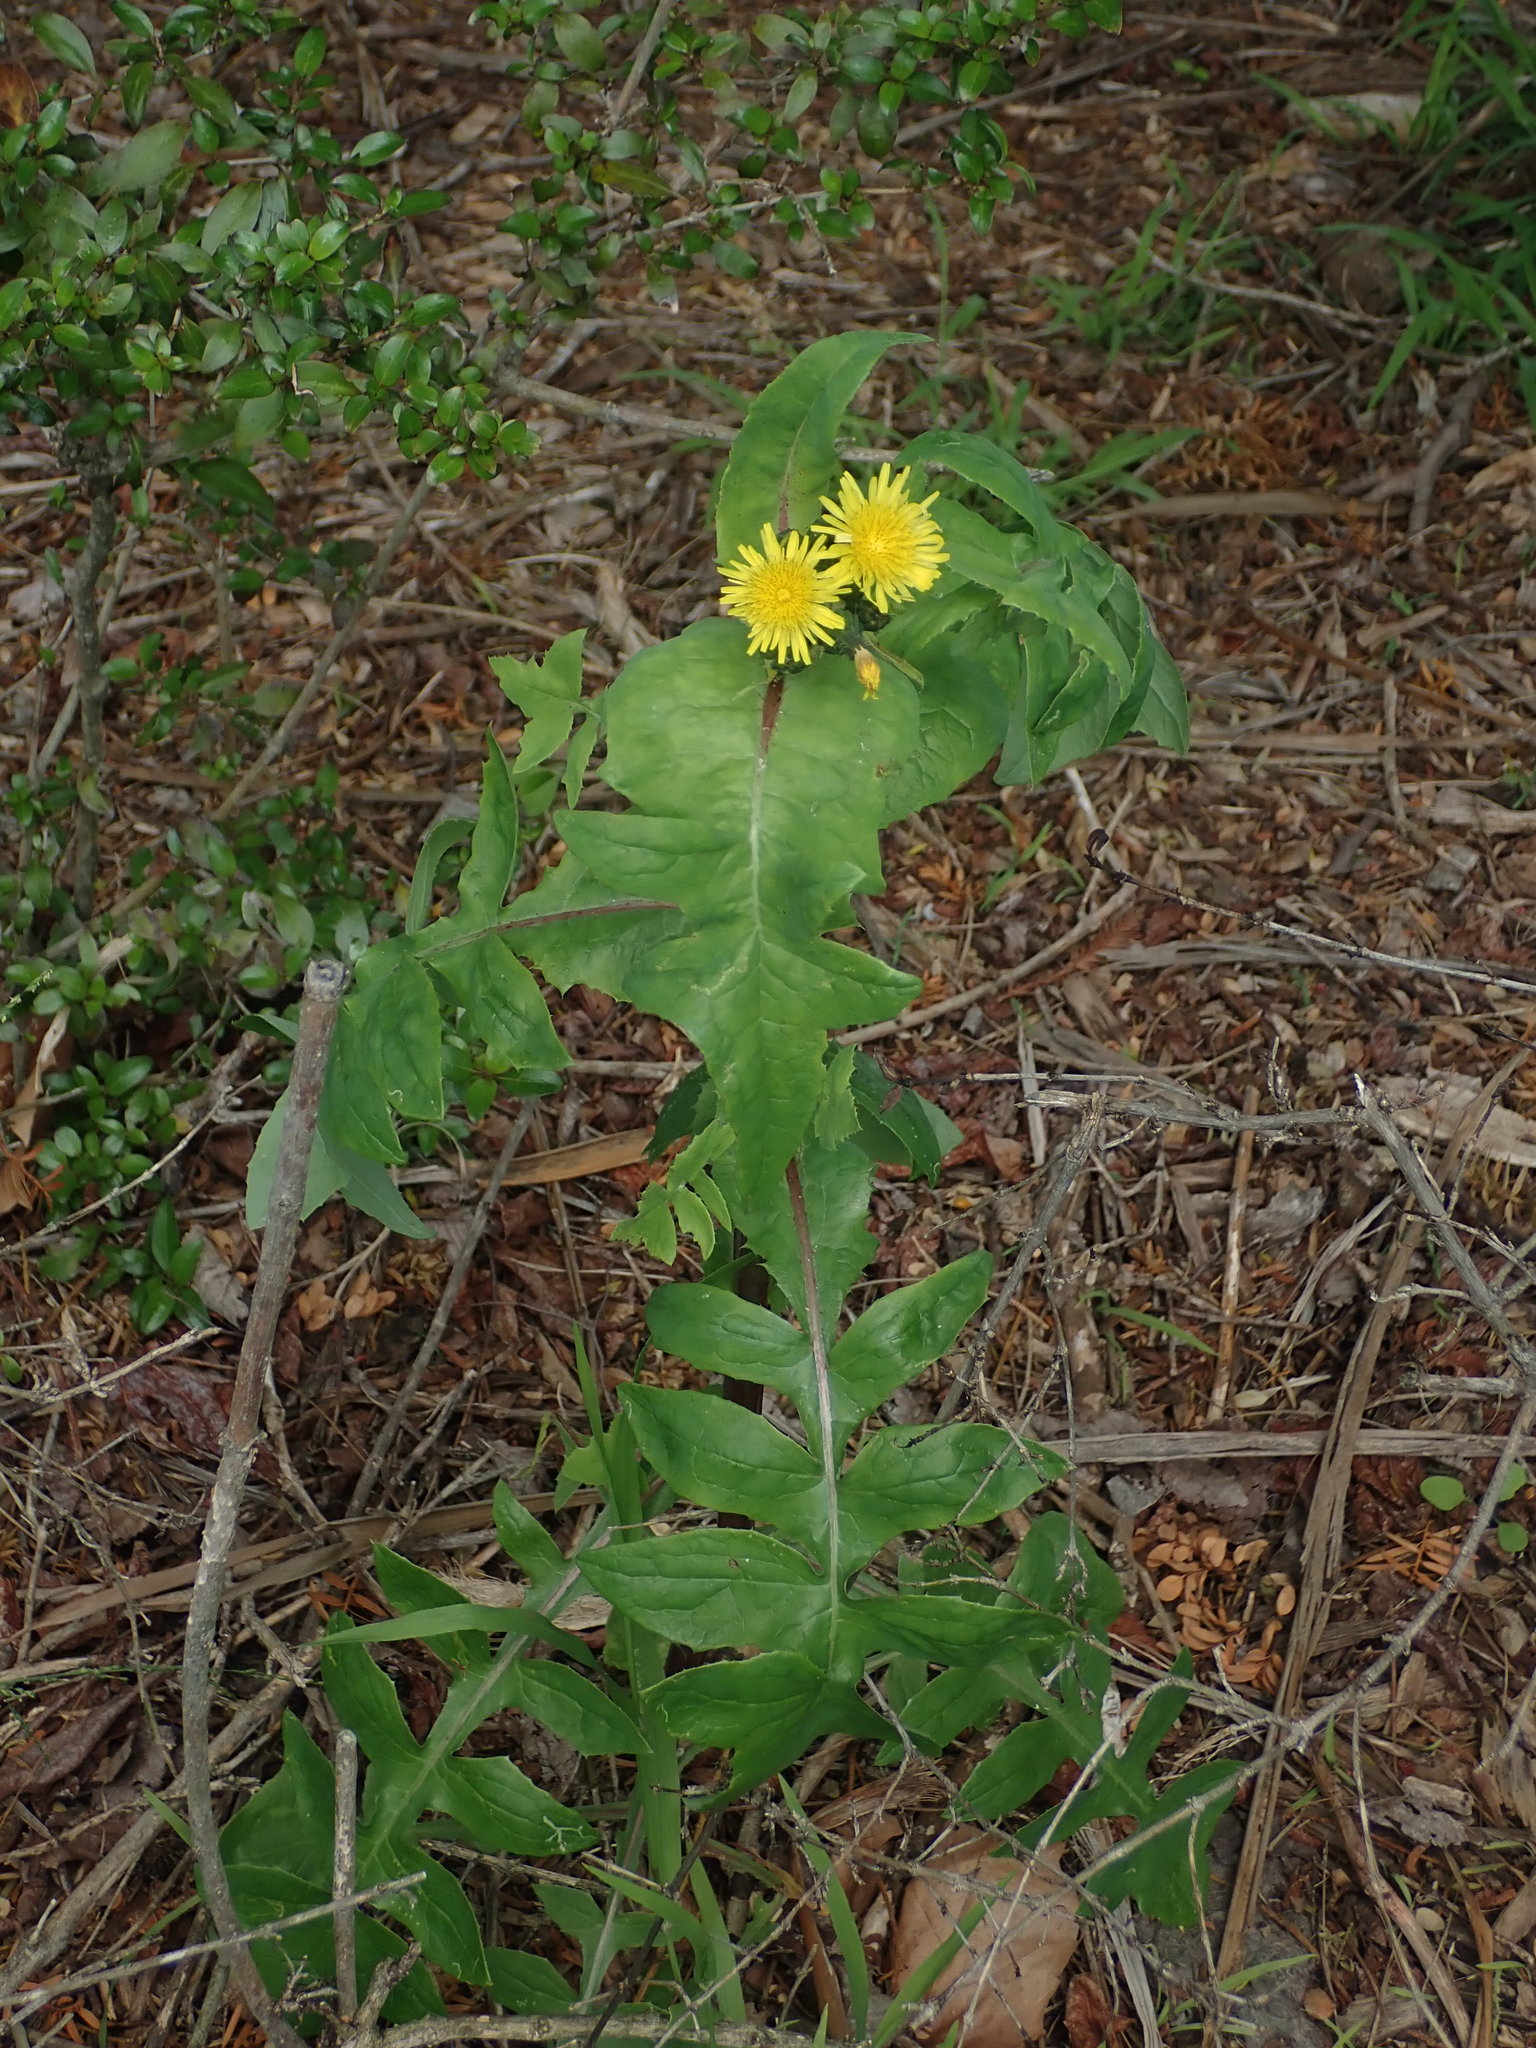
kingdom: Plantae
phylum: Tracheophyta
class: Magnoliopsida
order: Asterales
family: Asteraceae
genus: Sonchus
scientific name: Sonchus oleraceus
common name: Common sowthistle
